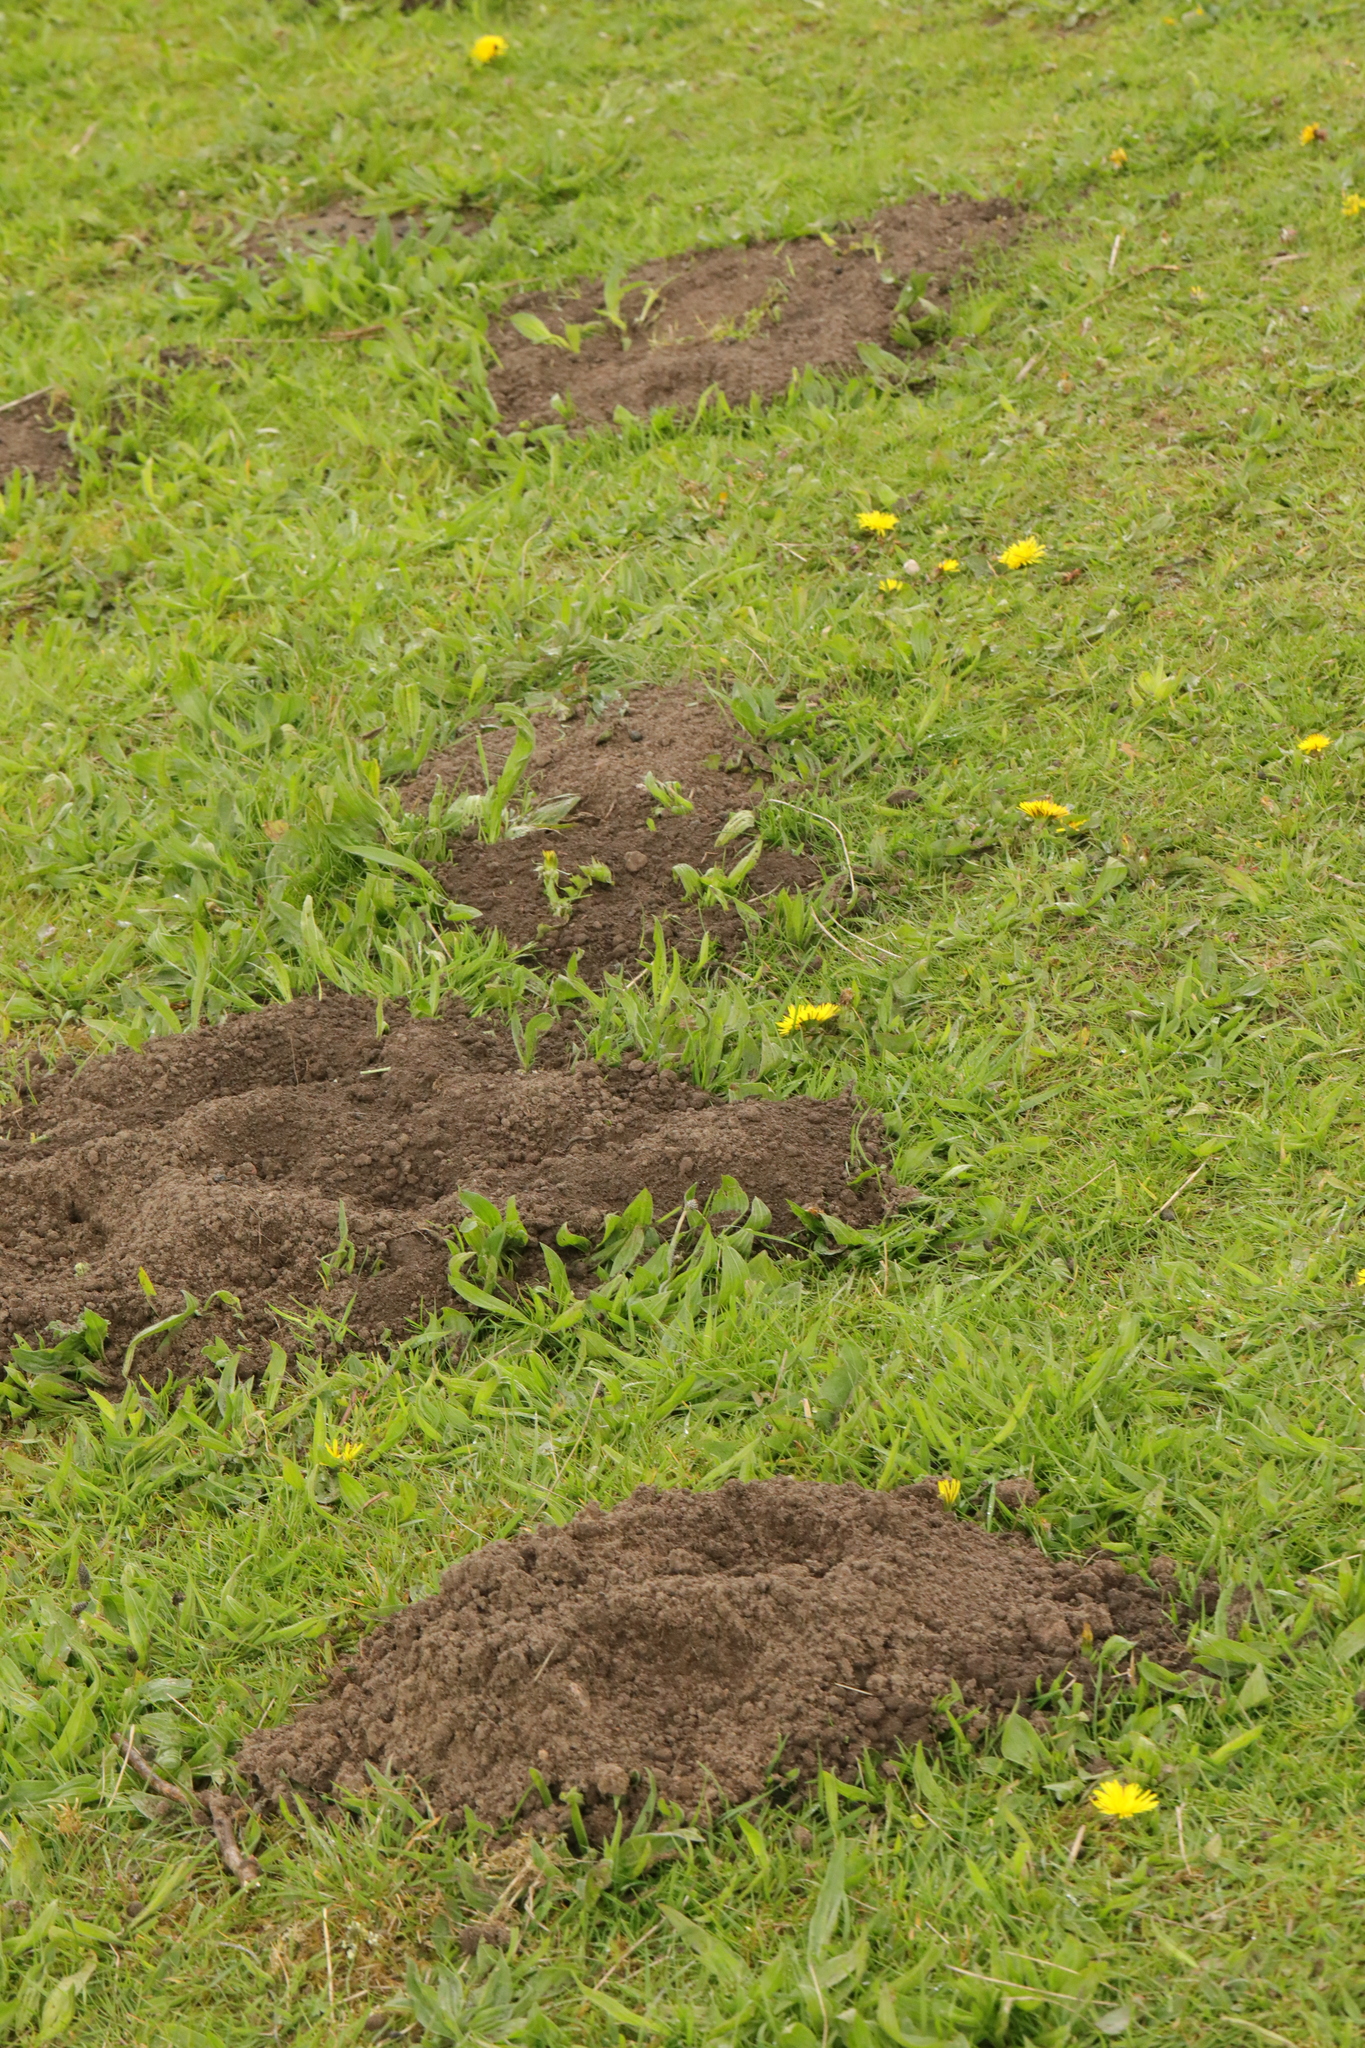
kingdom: Animalia
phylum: Chordata
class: Mammalia
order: Soricomorpha
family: Talpidae
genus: Talpa
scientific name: Talpa europaea
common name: European mole
